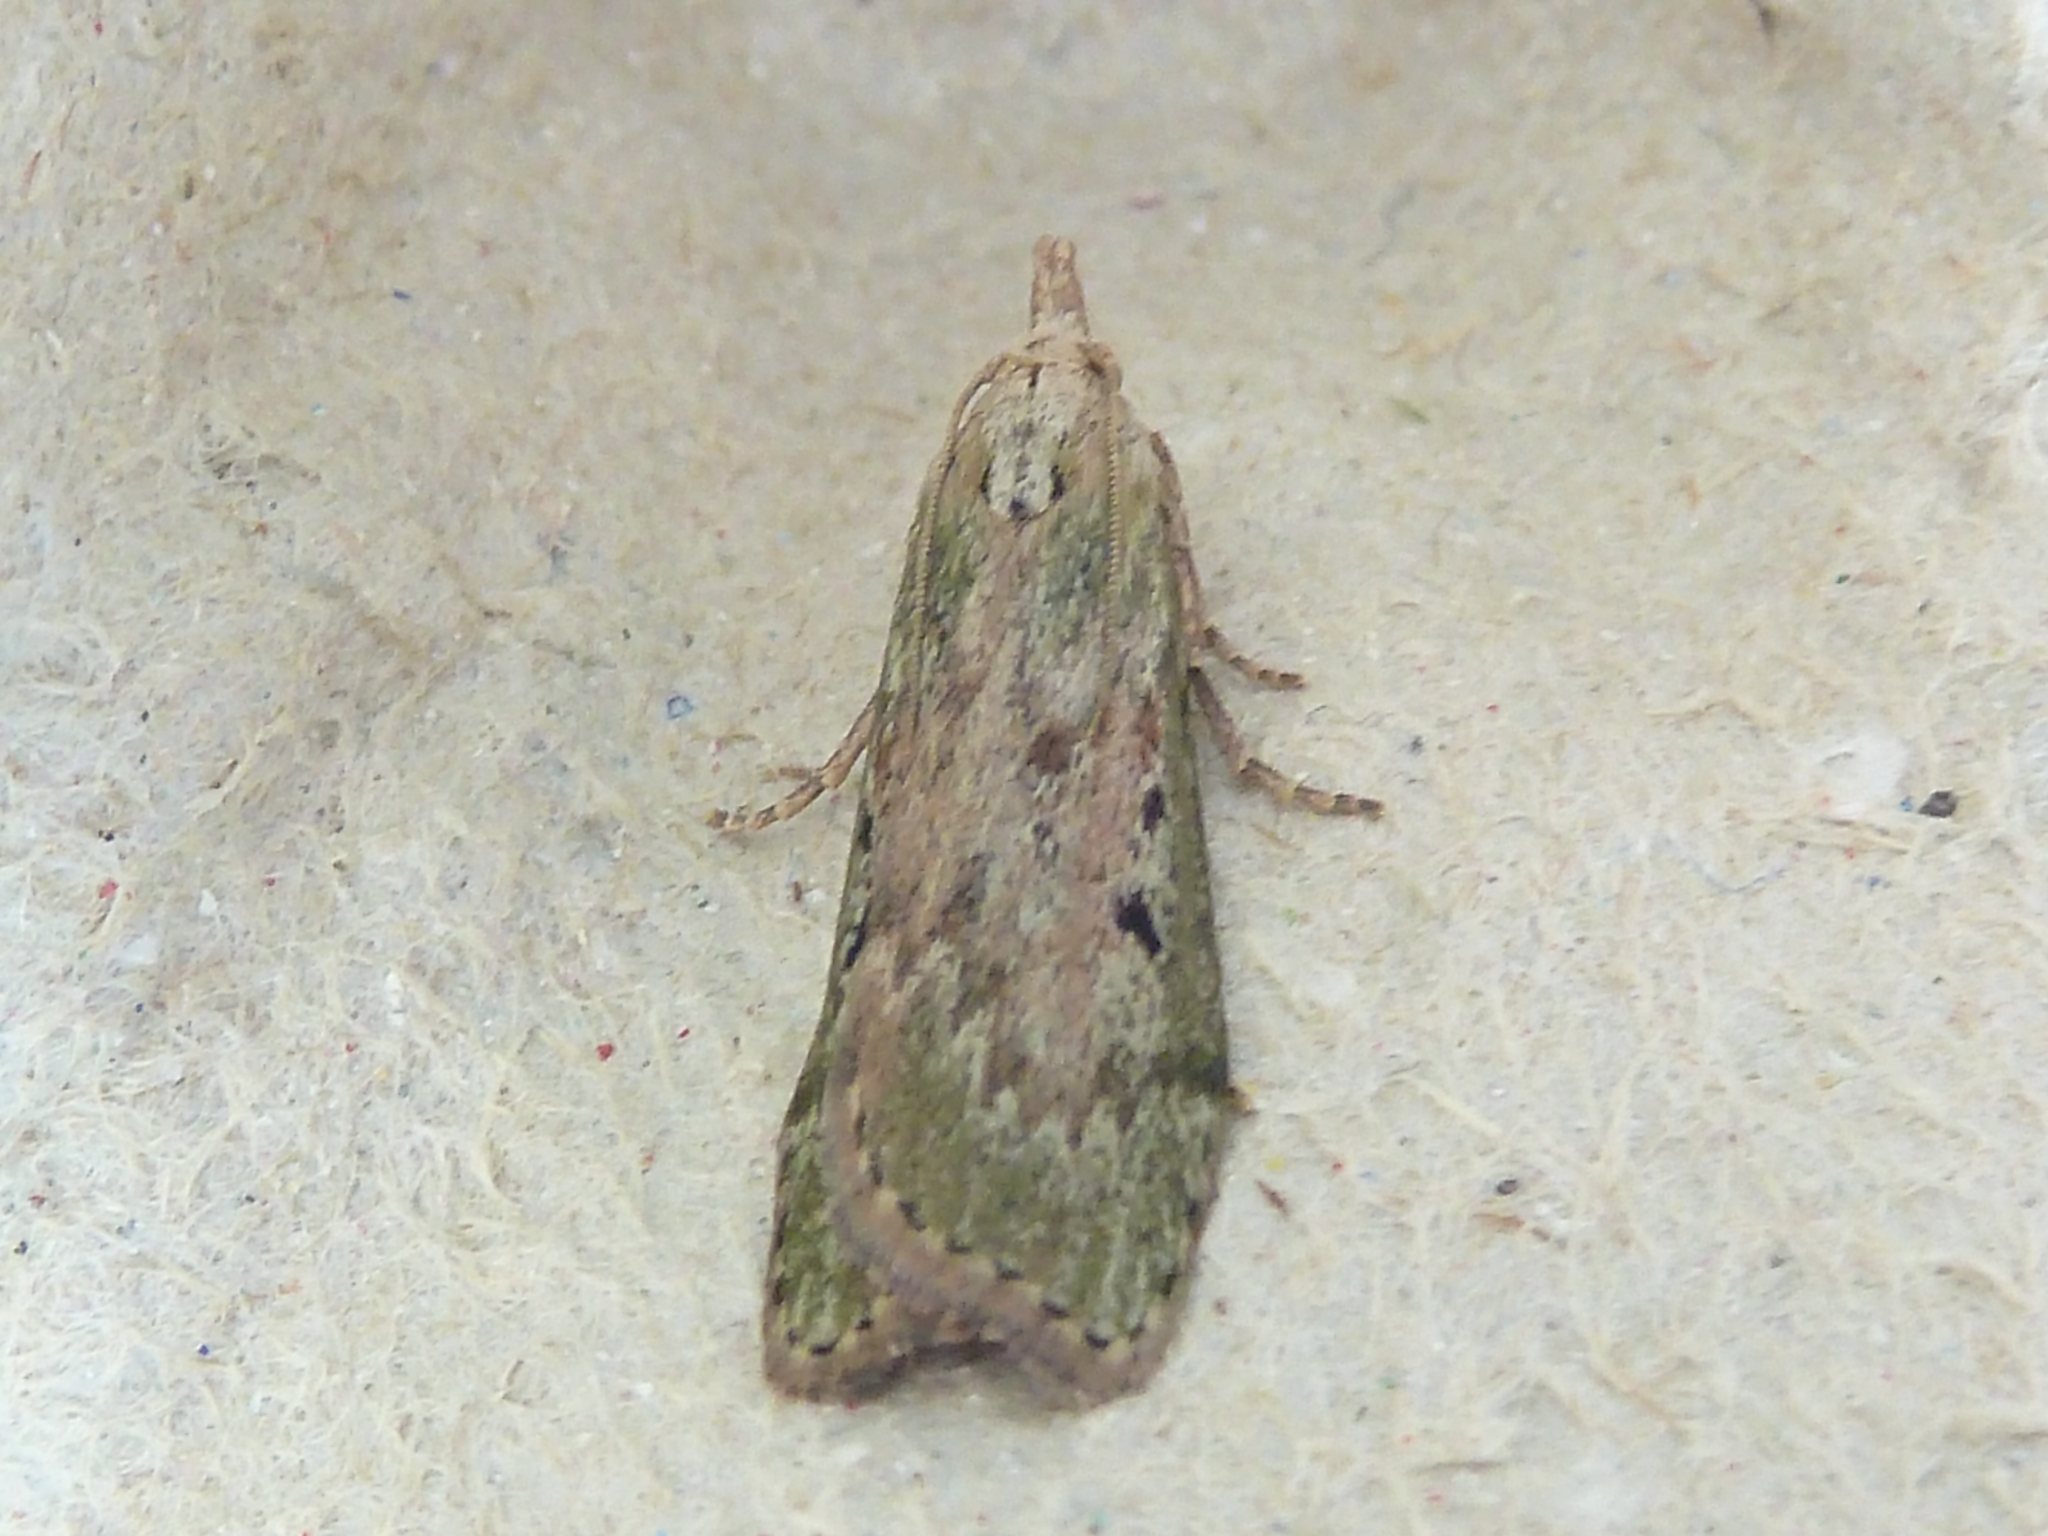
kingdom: Animalia
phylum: Arthropoda
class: Insecta
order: Lepidoptera
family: Pyralidae
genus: Aphomia
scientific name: Aphomia sociella
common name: Bee moth
